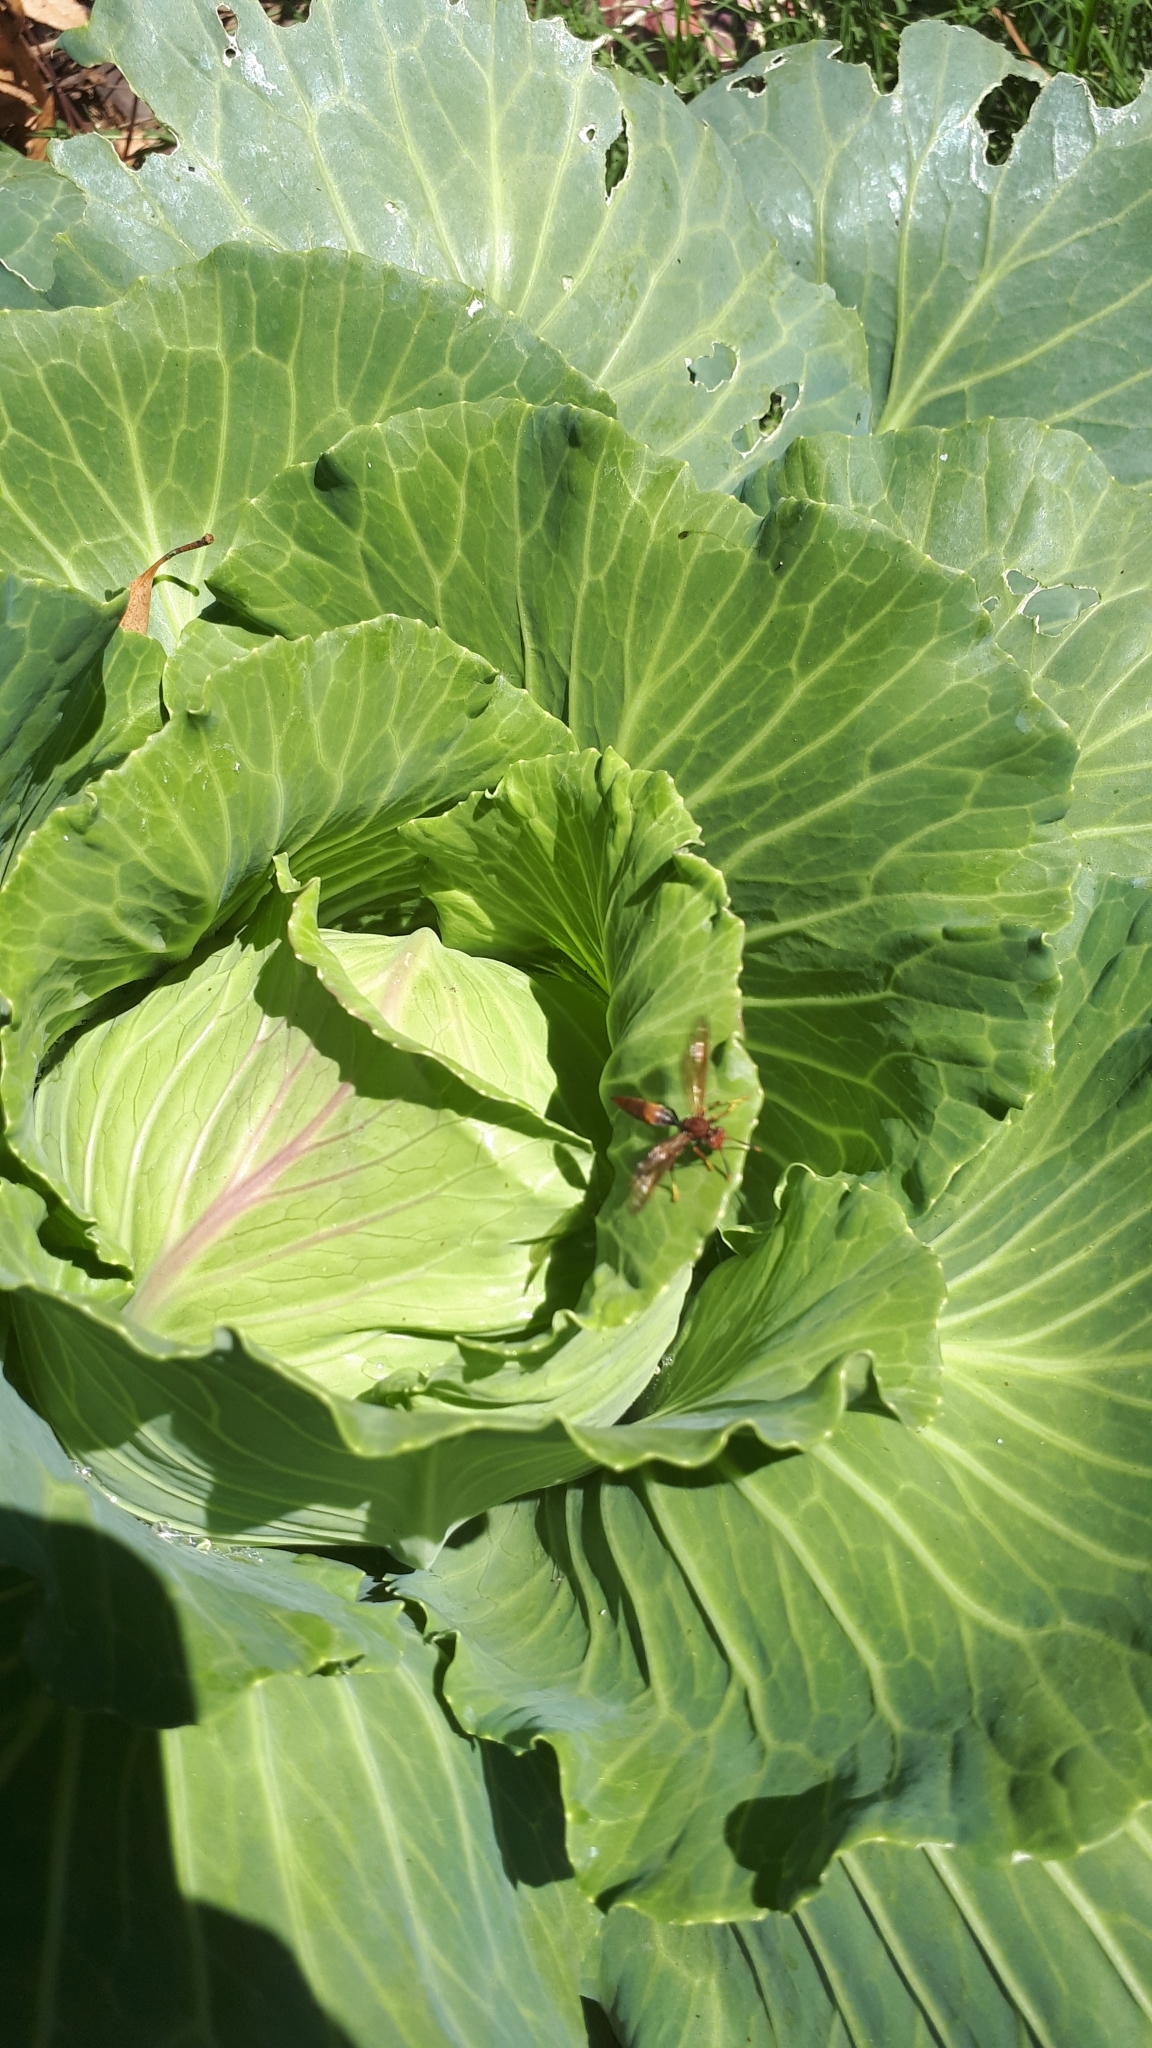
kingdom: Animalia
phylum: Arthropoda
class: Insecta
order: Hymenoptera
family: Pompilidae
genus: Aphanilopterus
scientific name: Aphanilopterus
